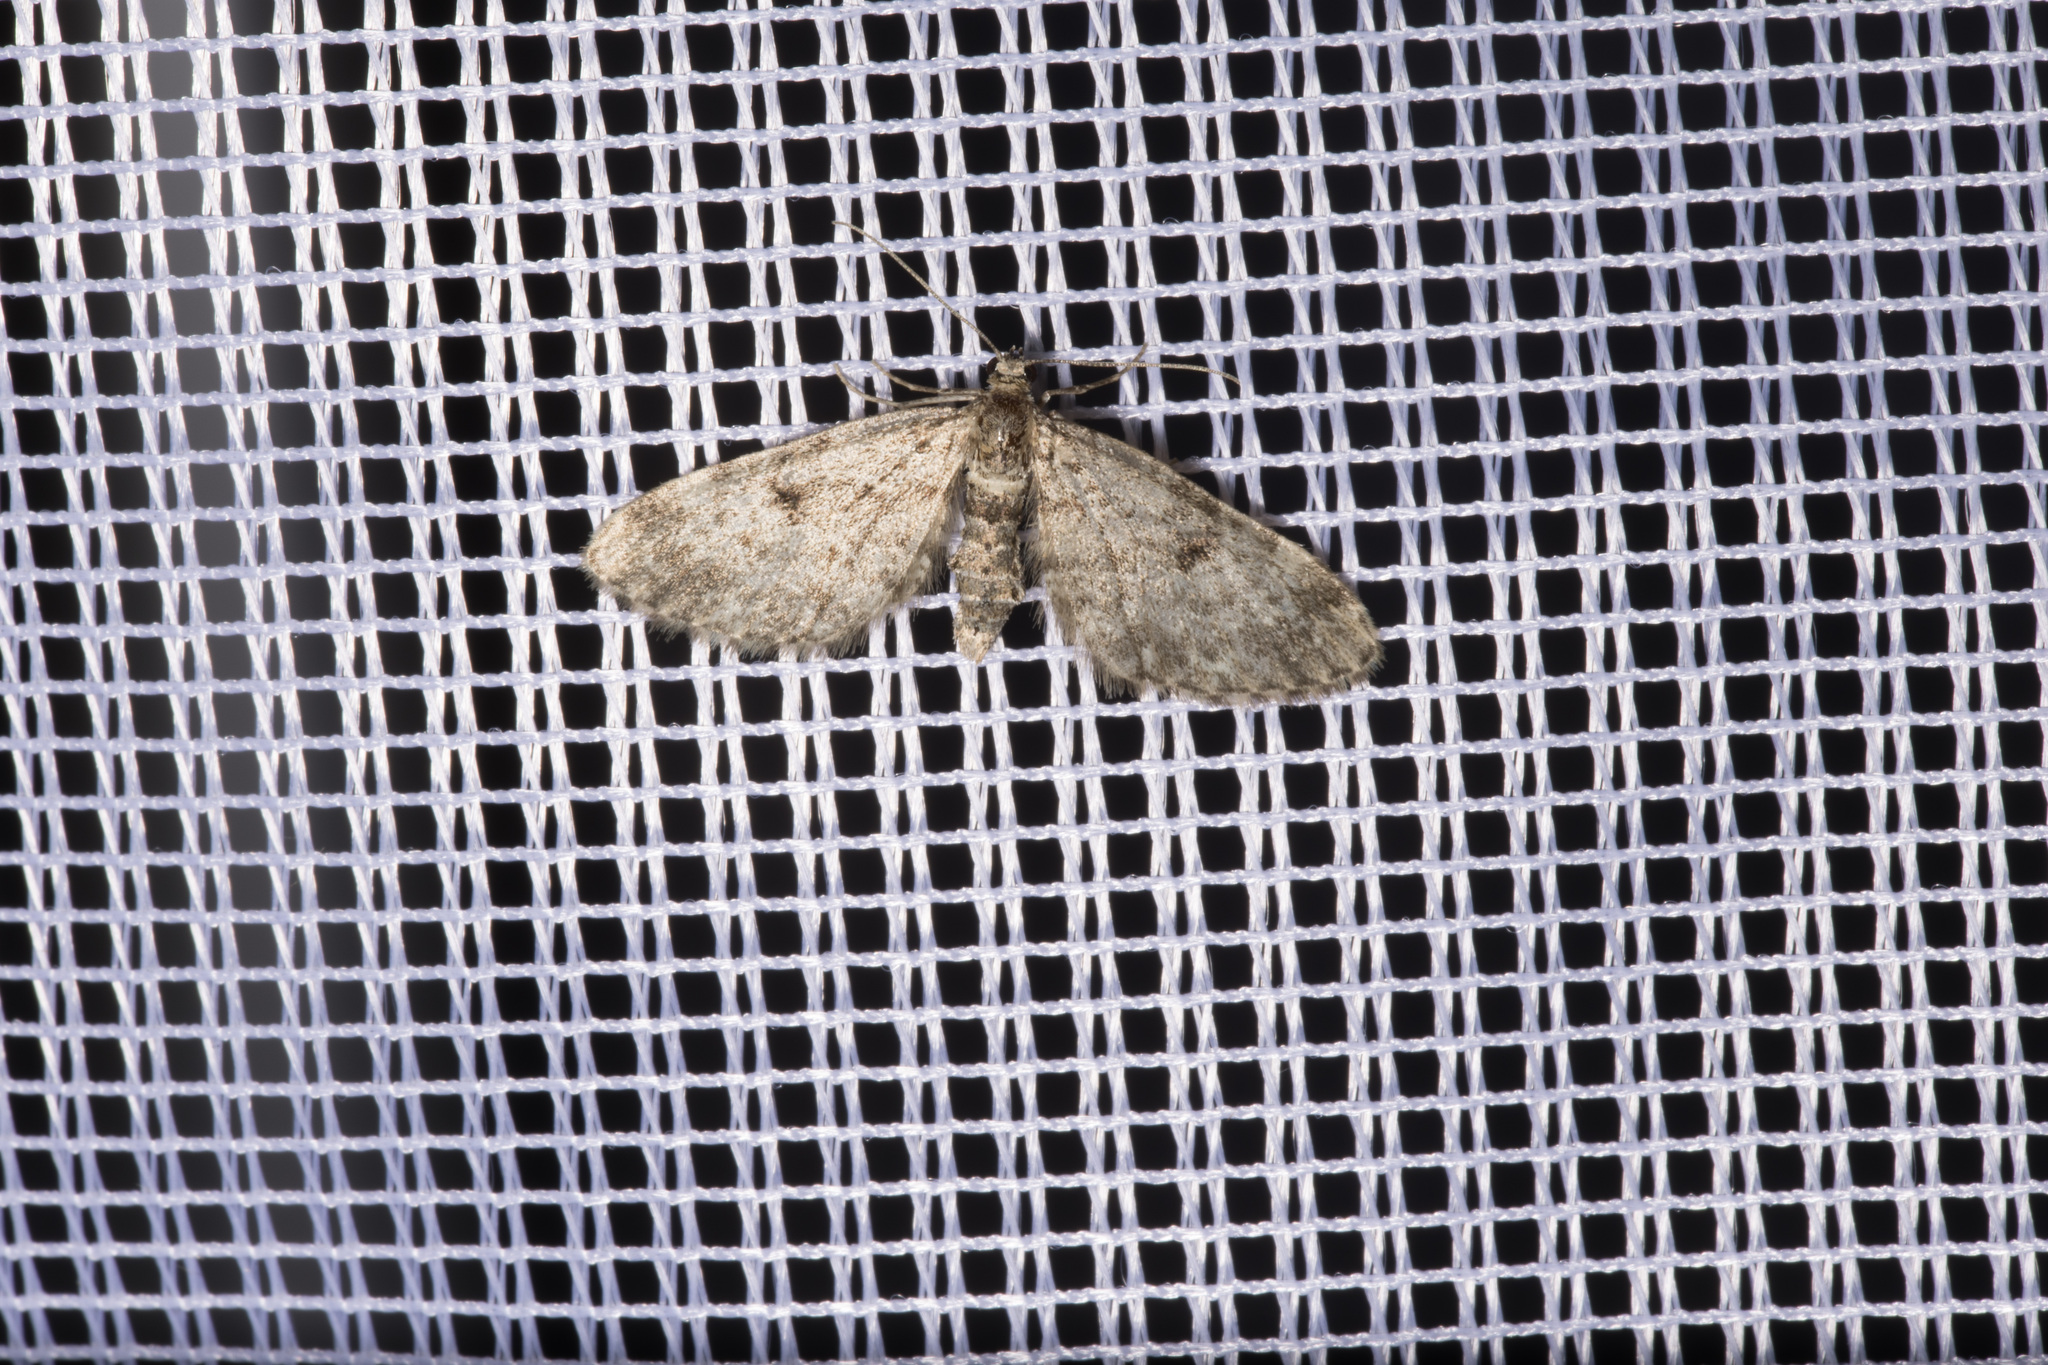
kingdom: Animalia
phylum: Arthropoda
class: Insecta
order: Lepidoptera
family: Geometridae
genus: Eupithecia
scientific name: Eupithecia tantillaria
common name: Dwarf pug
